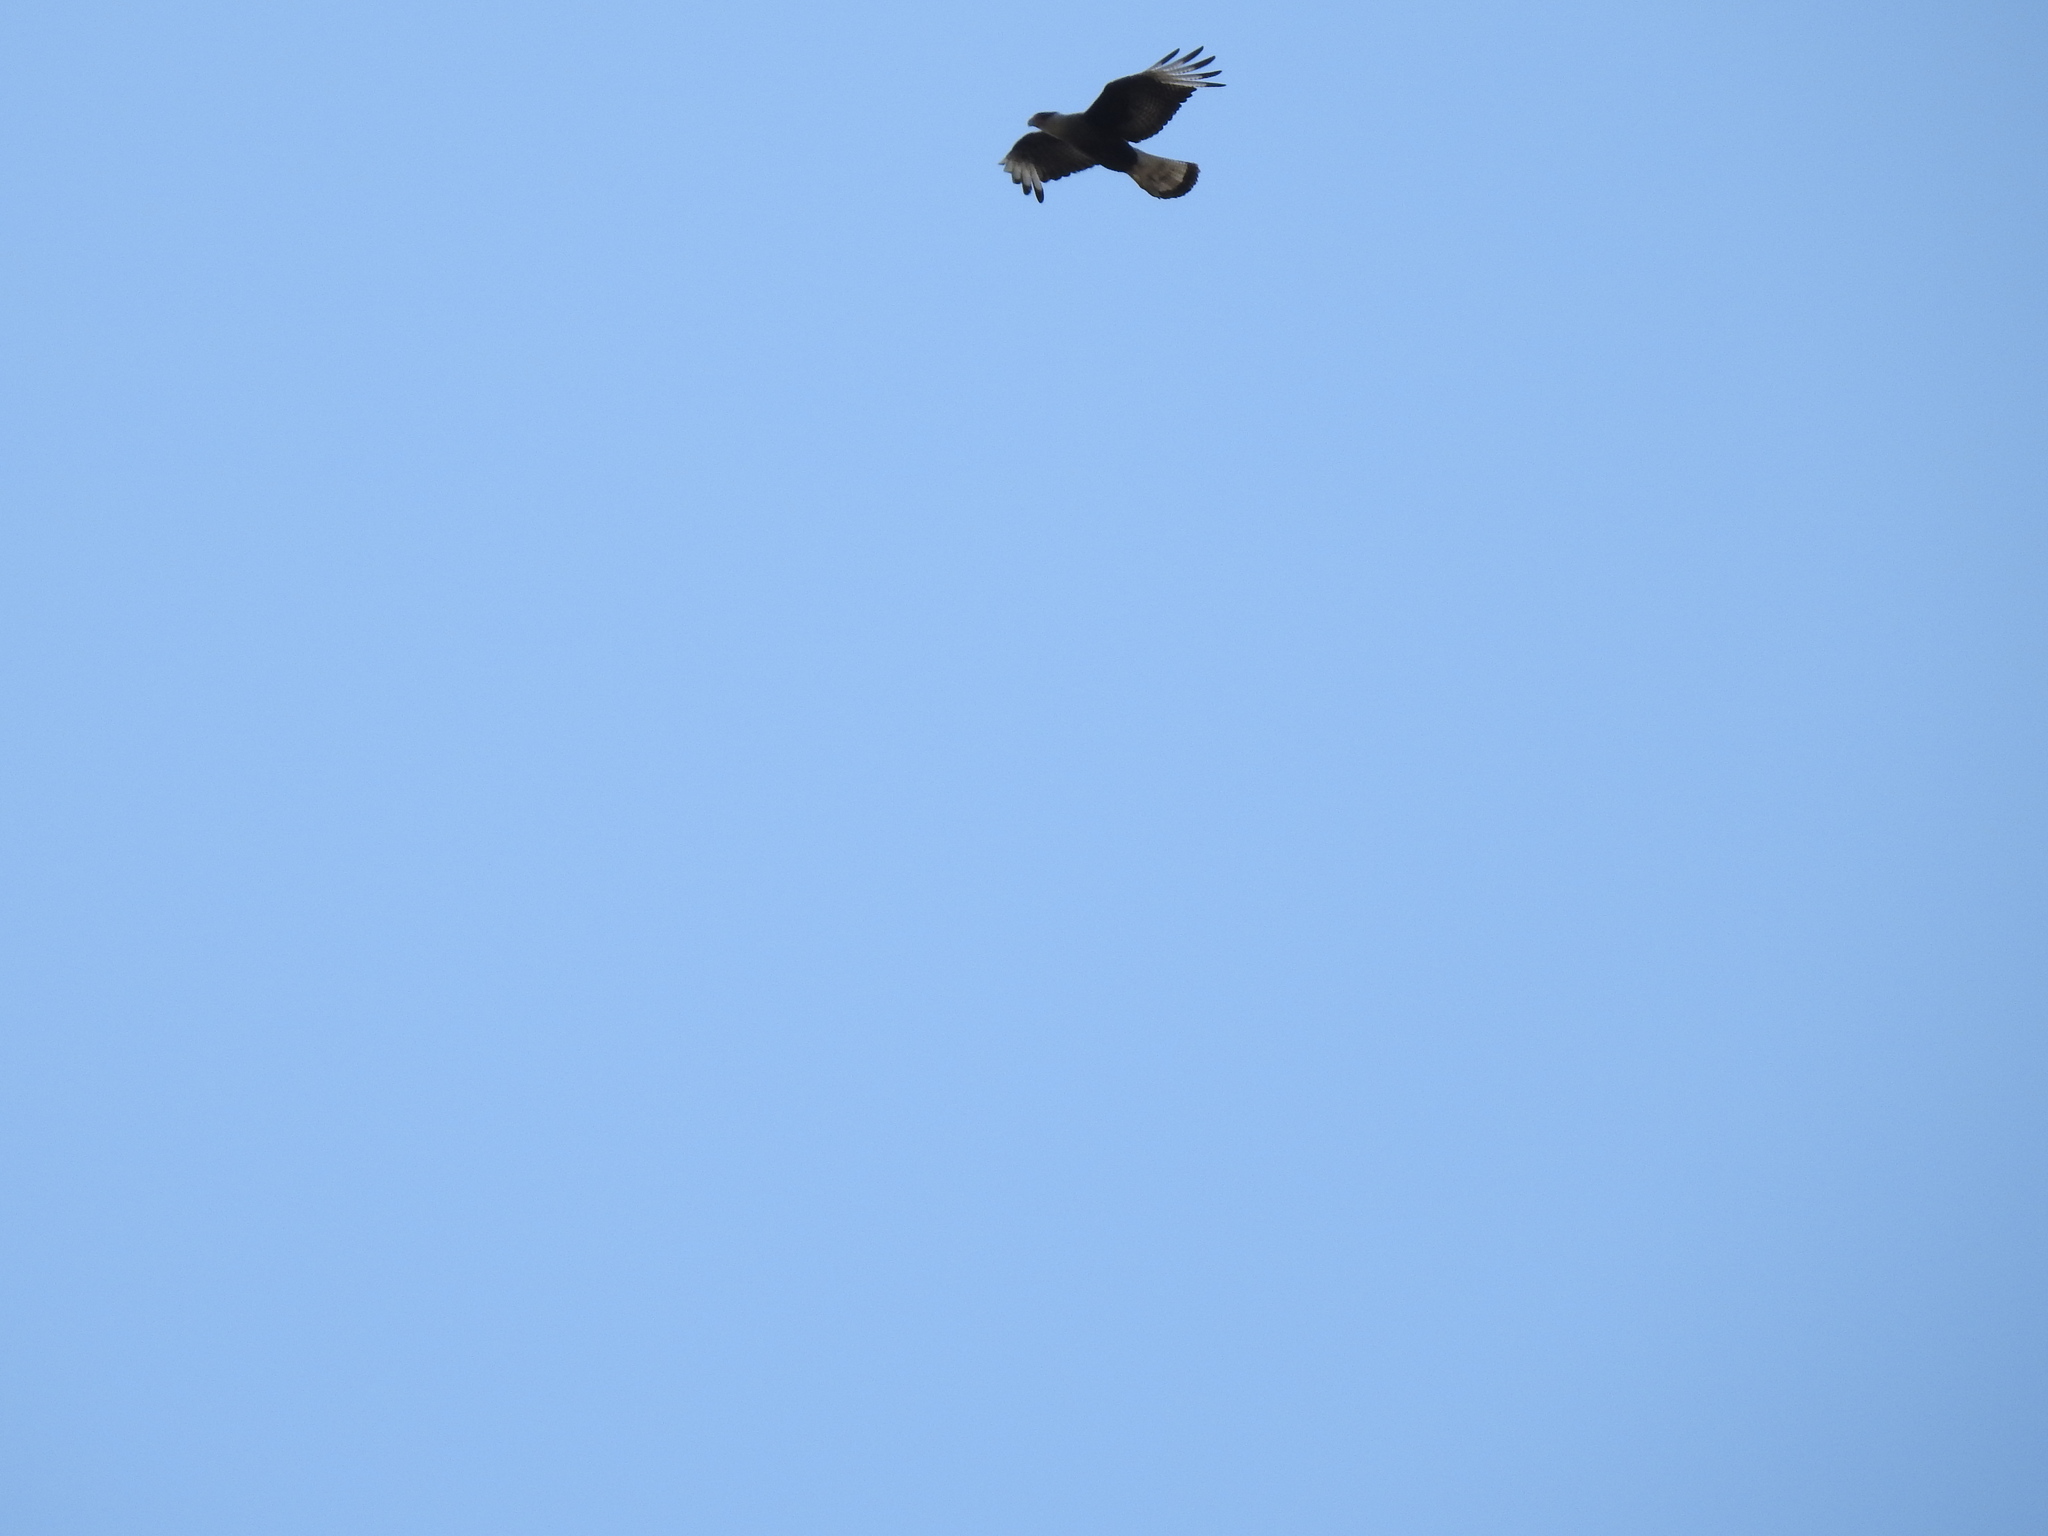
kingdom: Animalia
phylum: Chordata
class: Aves
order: Falconiformes
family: Falconidae
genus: Caracara
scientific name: Caracara plancus
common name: Southern caracara
